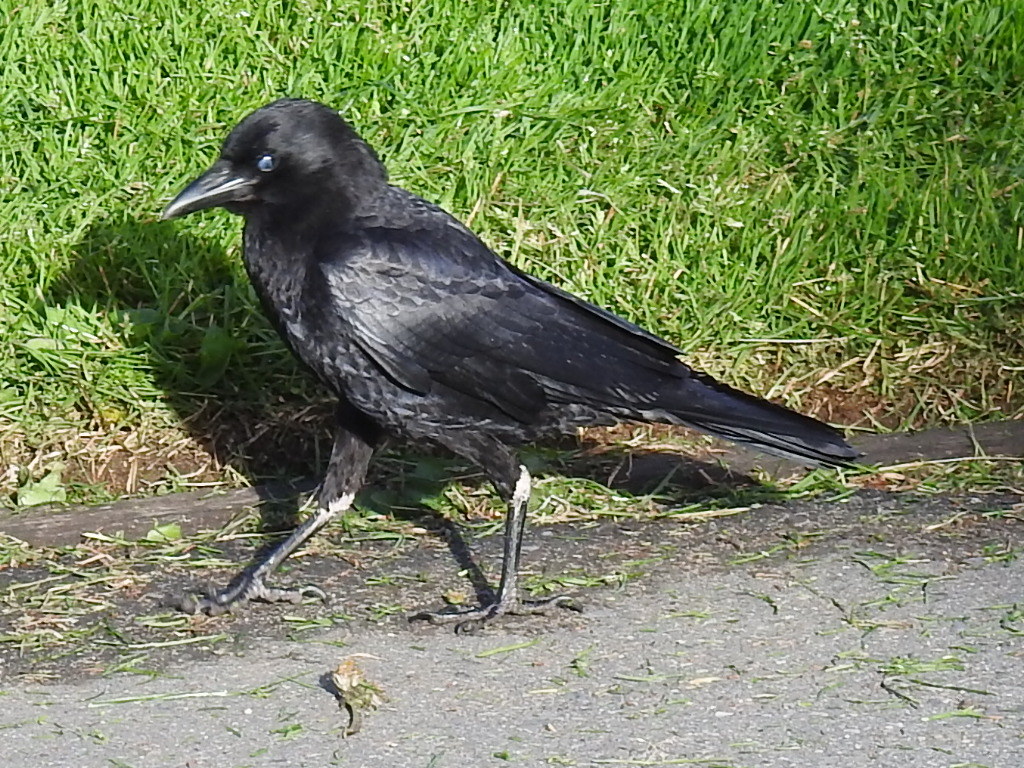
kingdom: Animalia
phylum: Chordata
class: Aves
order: Passeriformes
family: Corvidae
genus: Corvus
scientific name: Corvus brachyrhynchos
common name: American crow
